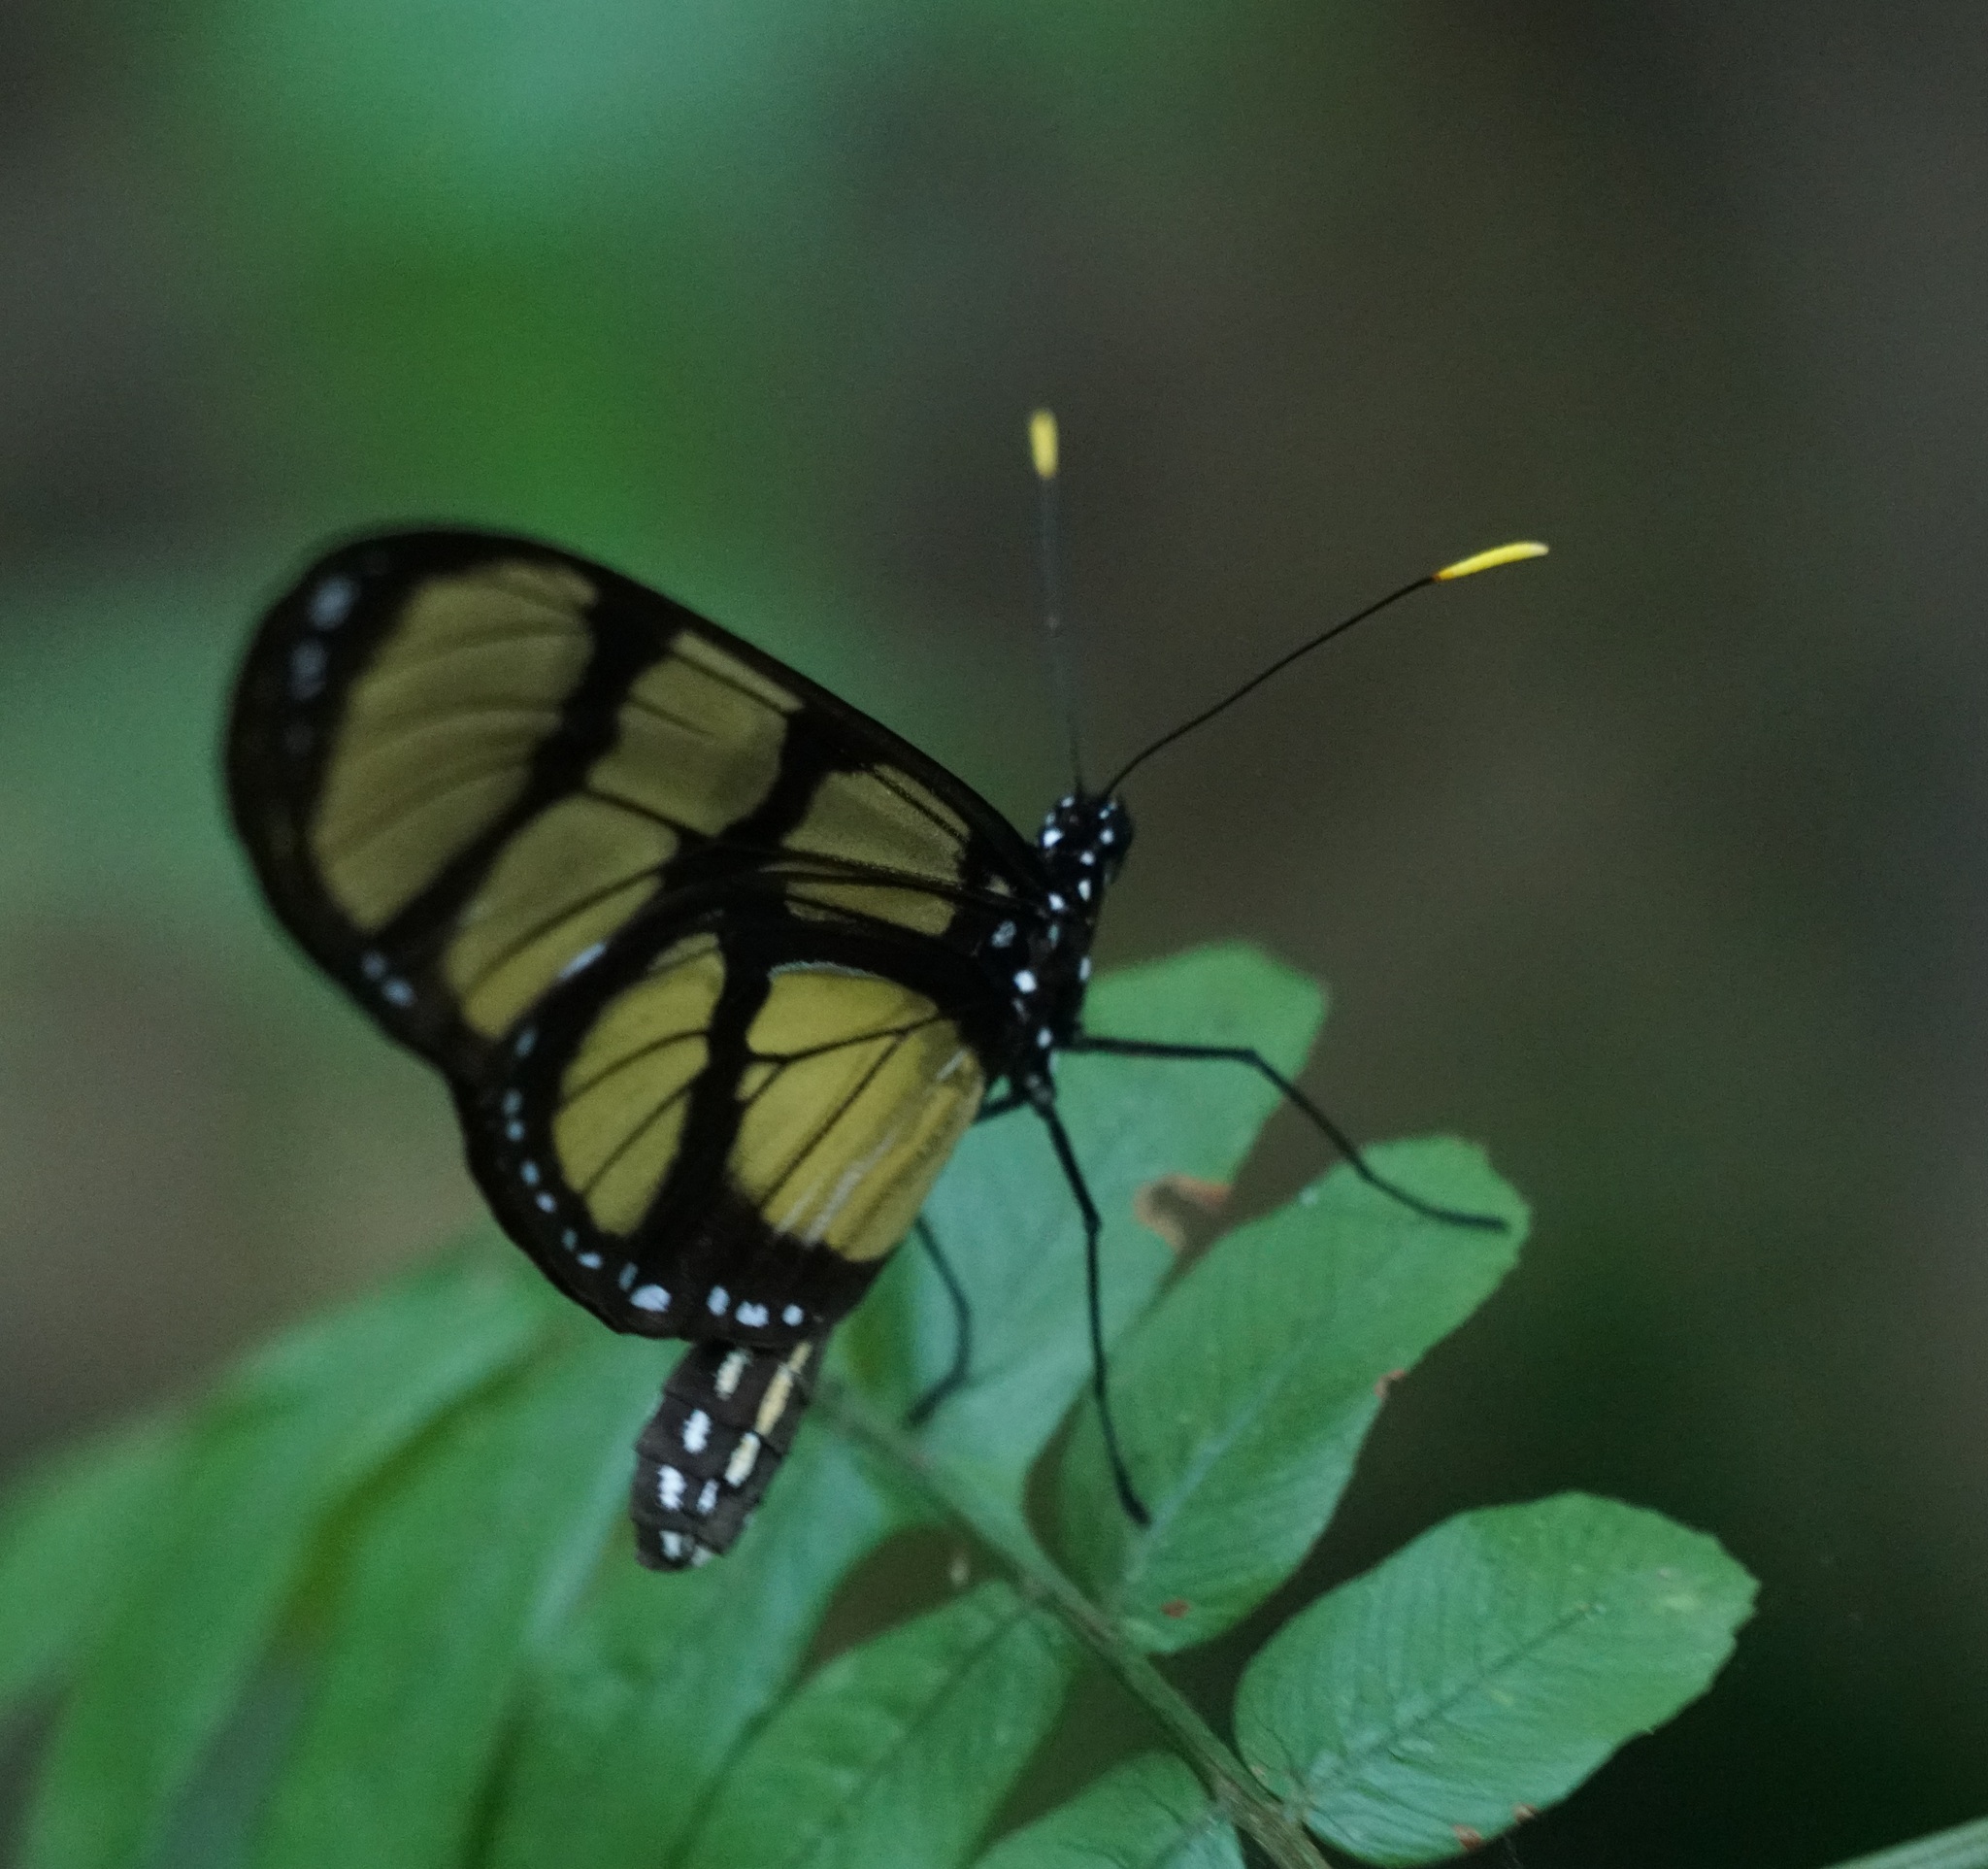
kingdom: Animalia
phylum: Arthropoda
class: Insecta
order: Lepidoptera
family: Nymphalidae
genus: Thyridia
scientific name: Thyridia psidii
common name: Melantho tigerwing
